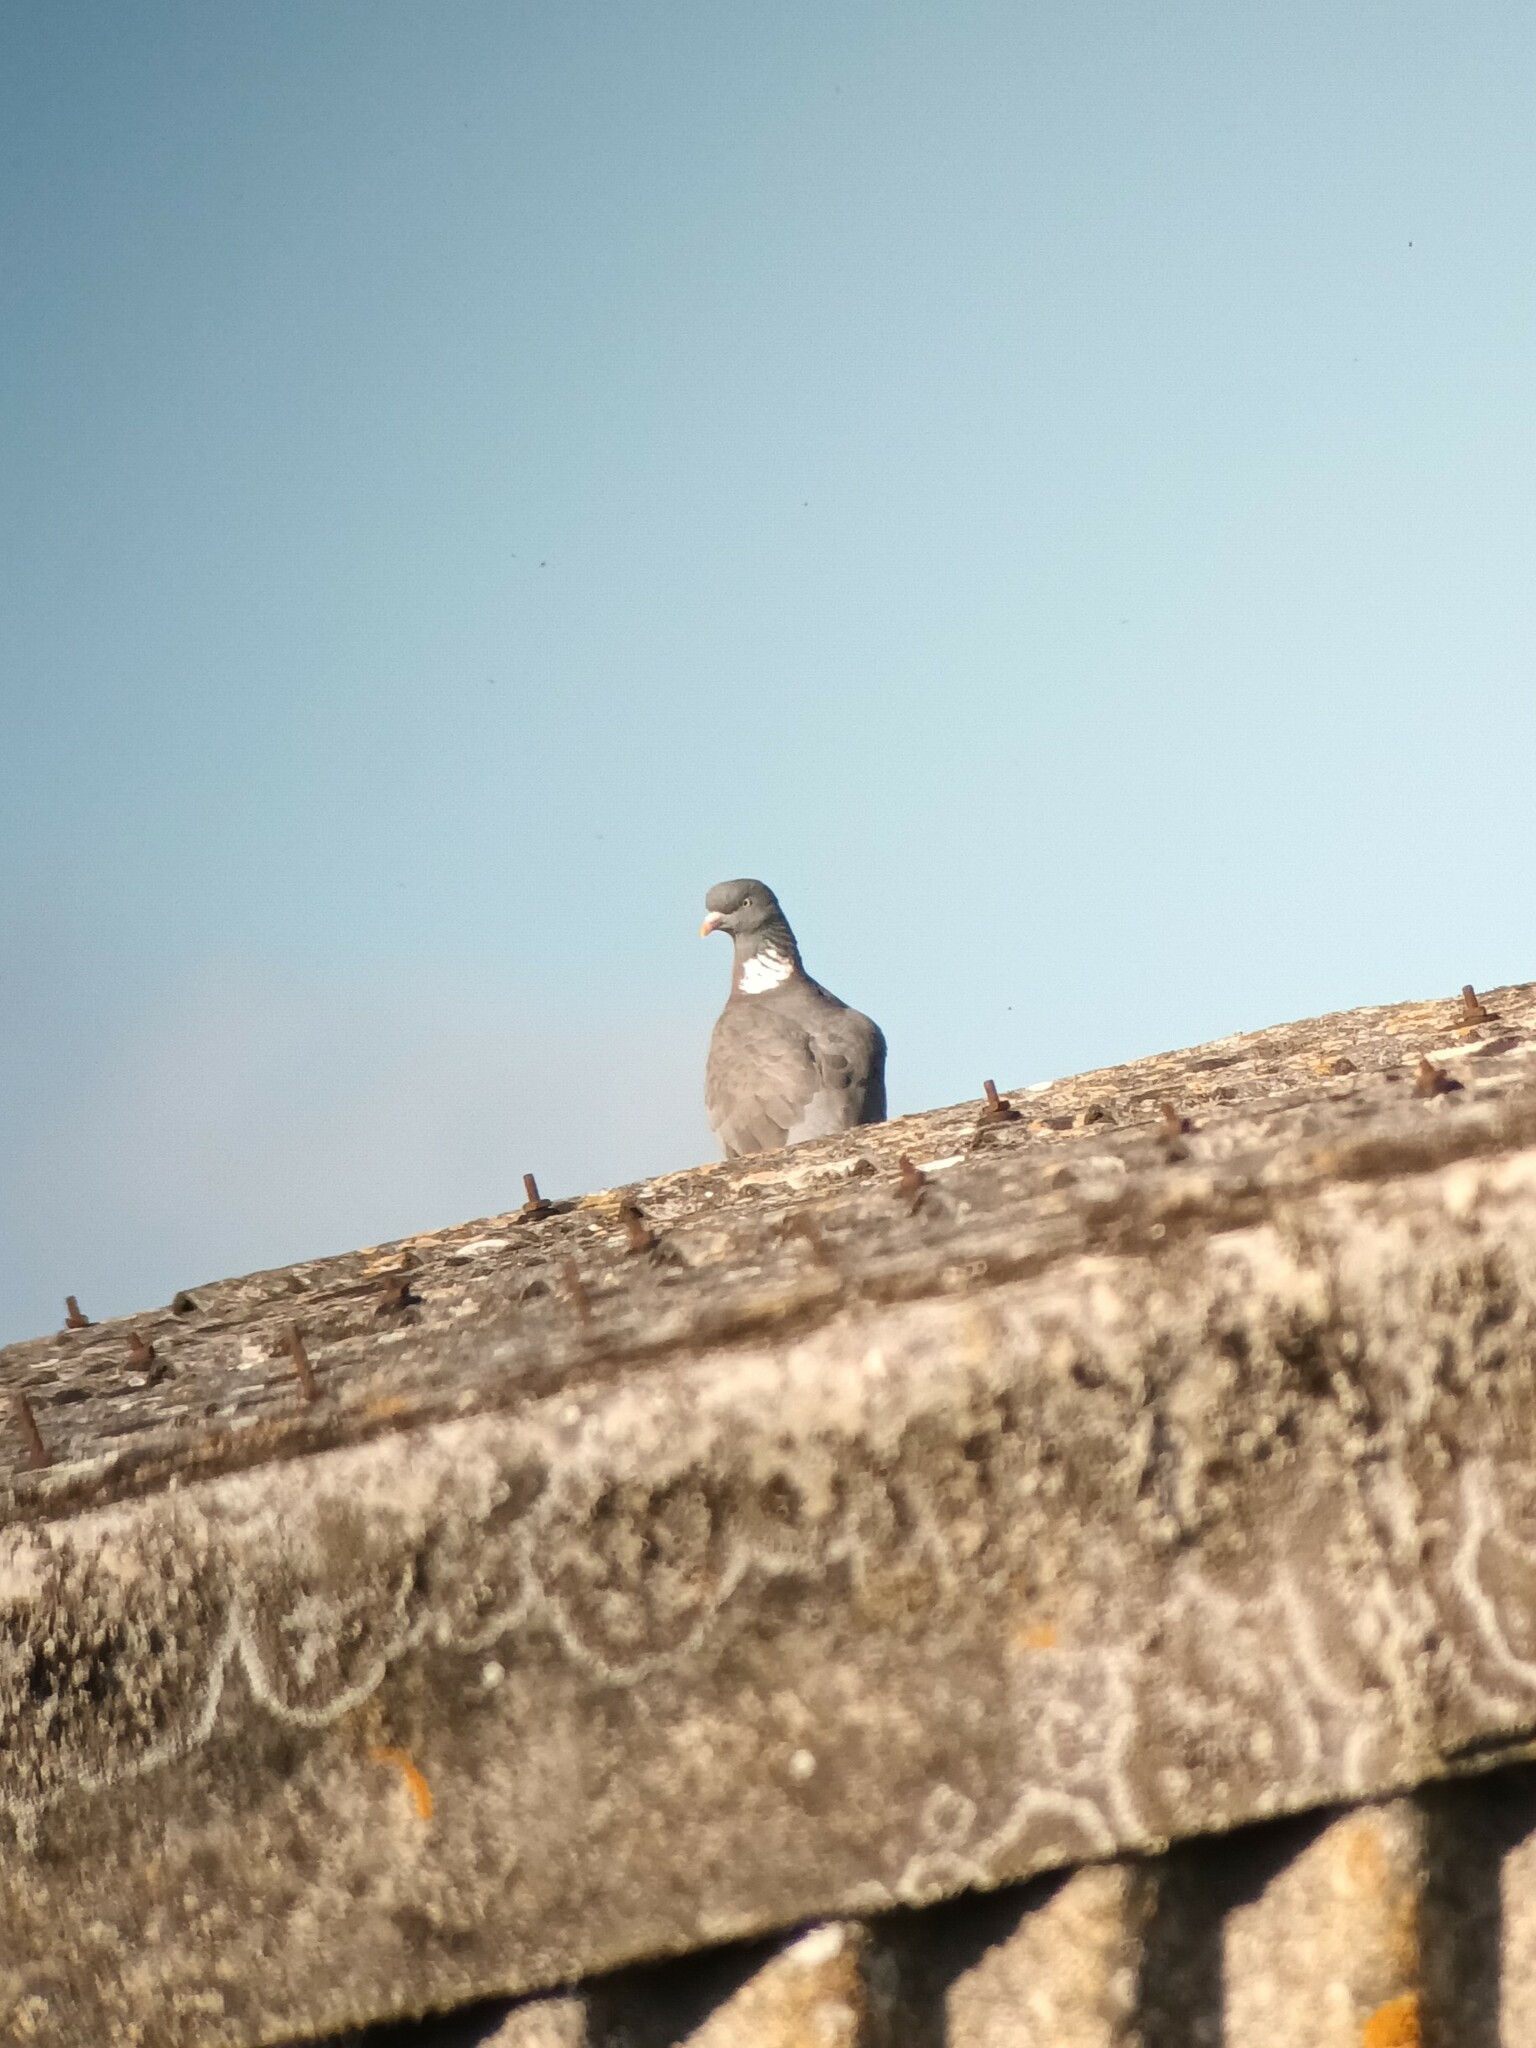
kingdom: Animalia
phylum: Chordata
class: Aves
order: Columbiformes
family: Columbidae
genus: Columba
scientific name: Columba palumbus
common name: Common wood pigeon
